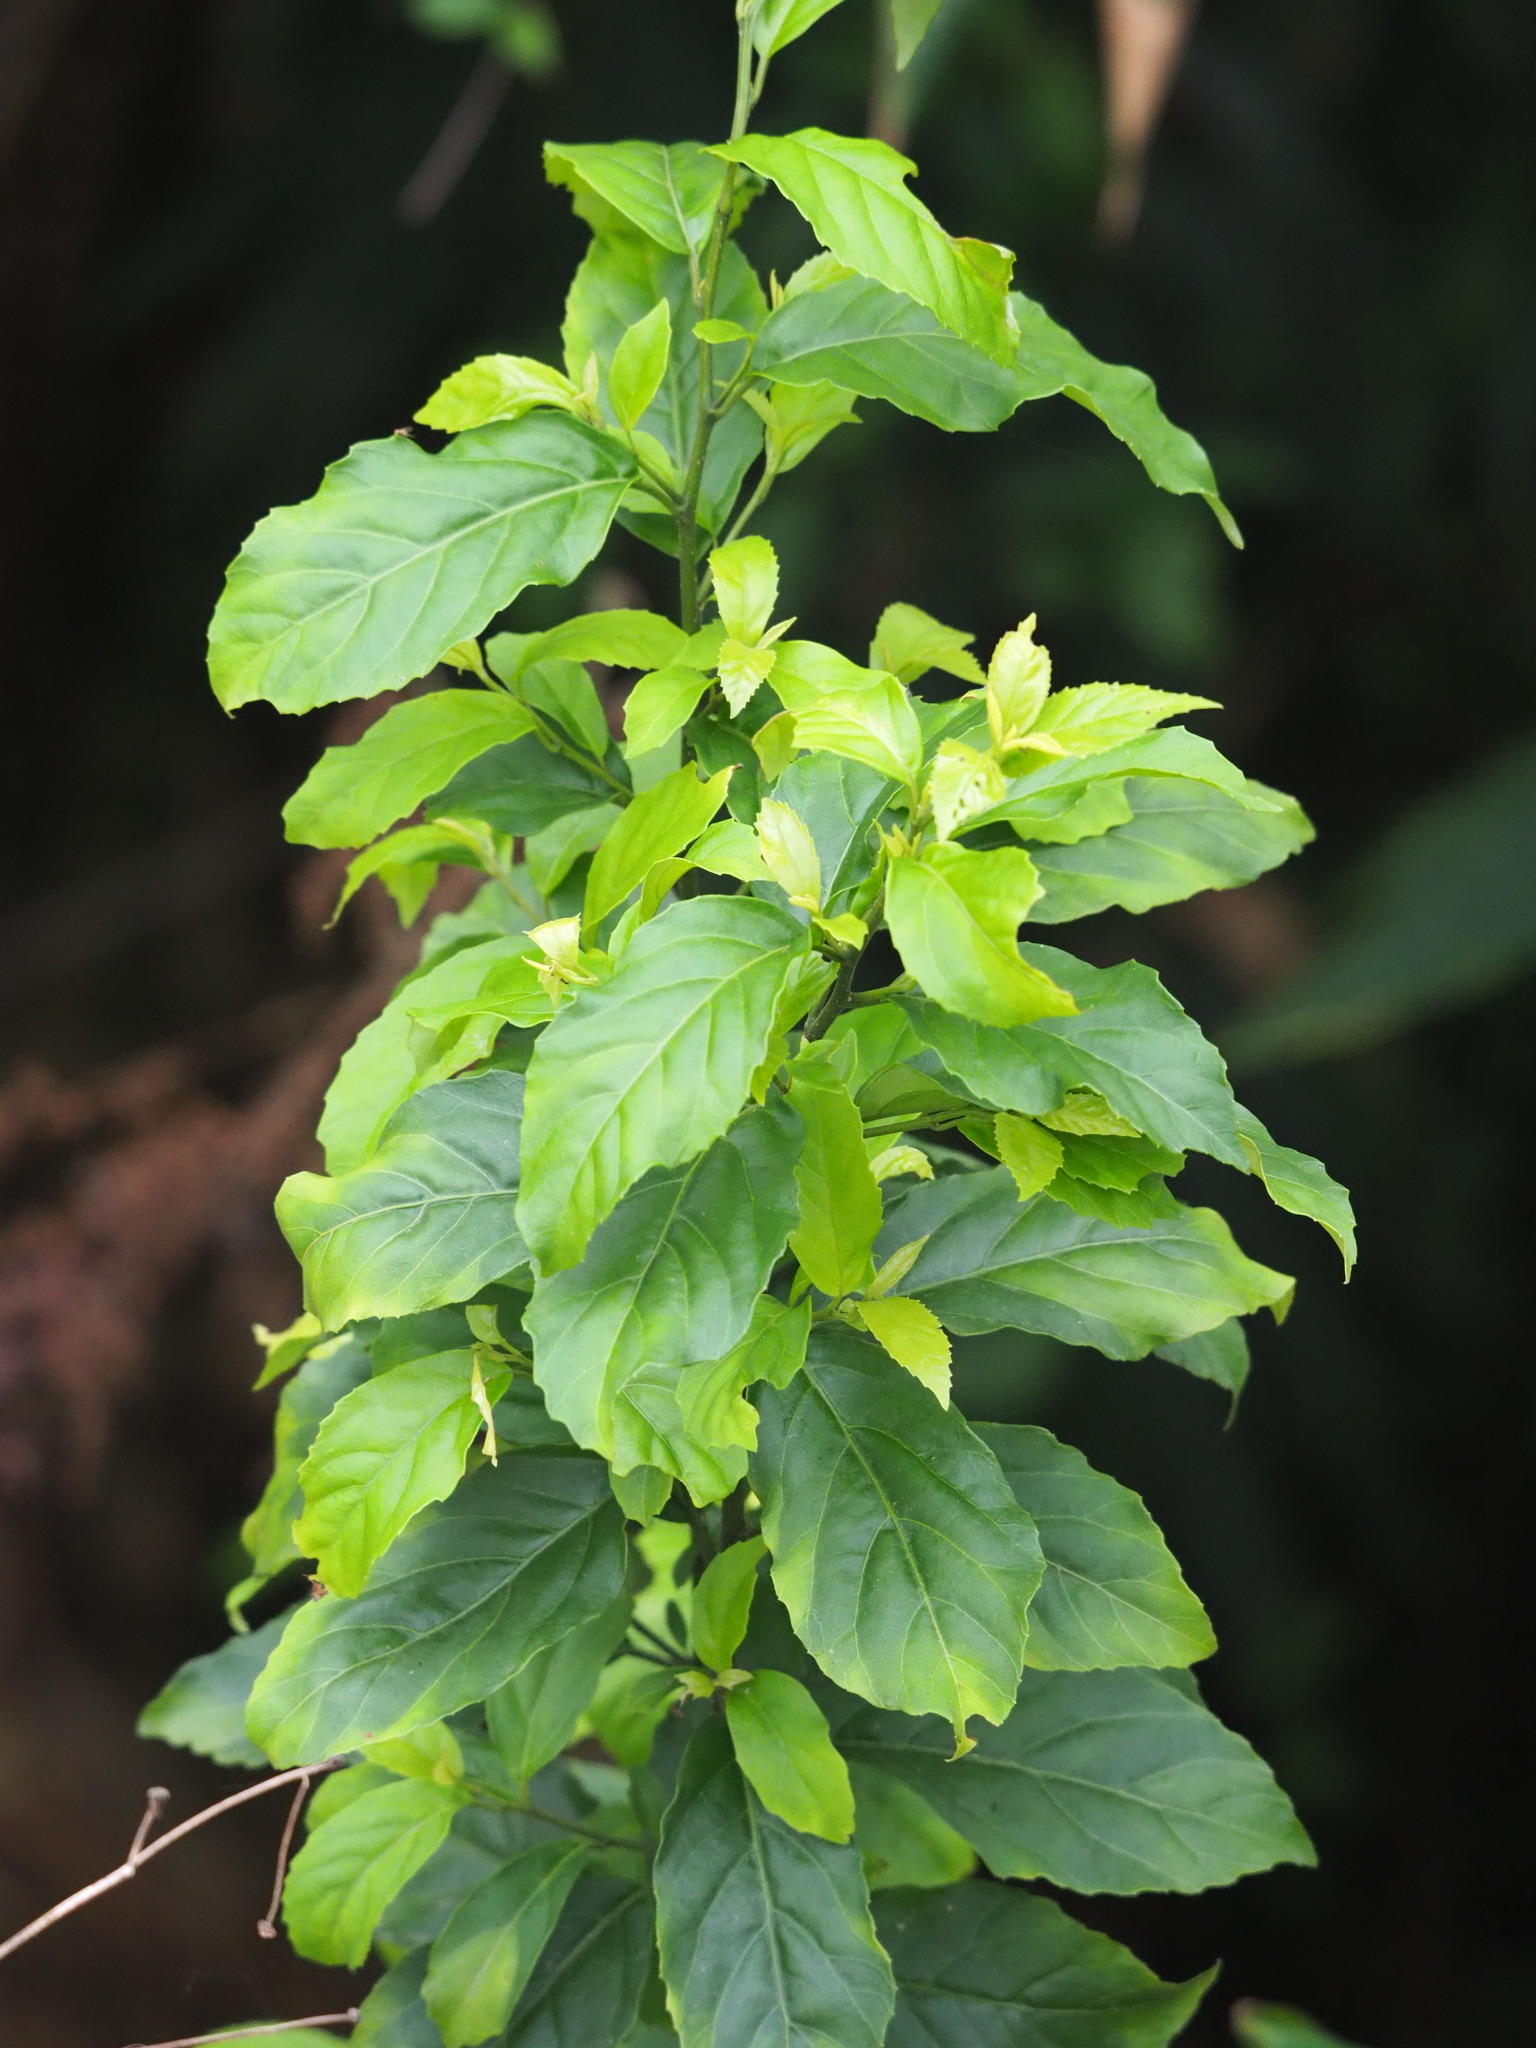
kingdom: Plantae
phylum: Tracheophyta
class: Magnoliopsida
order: Ericales
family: Primulaceae
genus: Maesa
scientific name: Maesa perlaria
